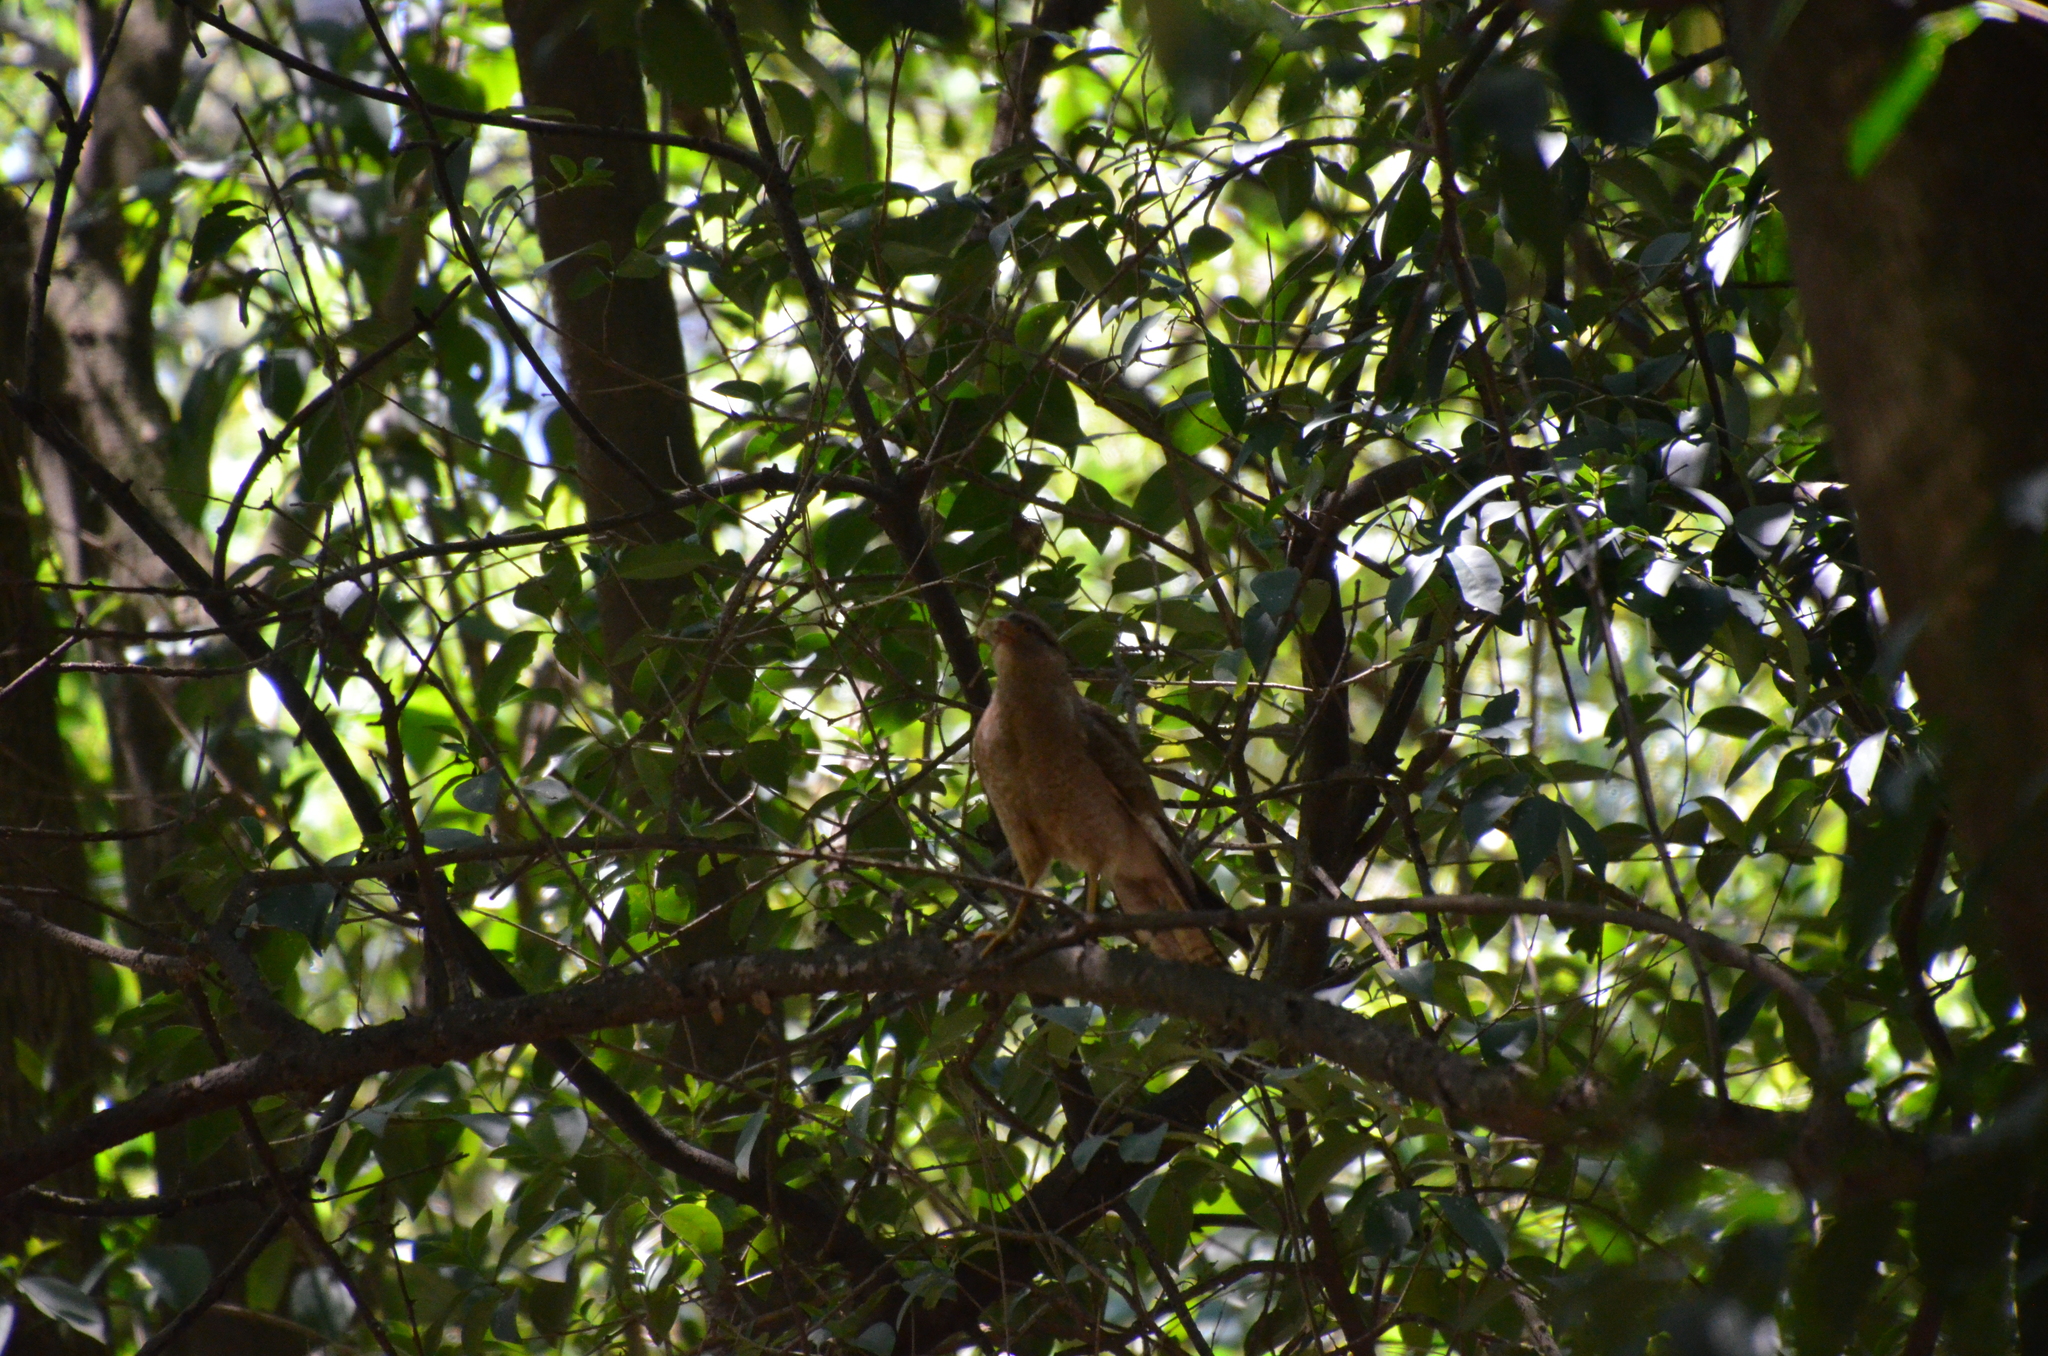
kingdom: Animalia
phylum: Chordata
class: Aves
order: Falconiformes
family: Falconidae
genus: Daptrius
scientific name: Daptrius
